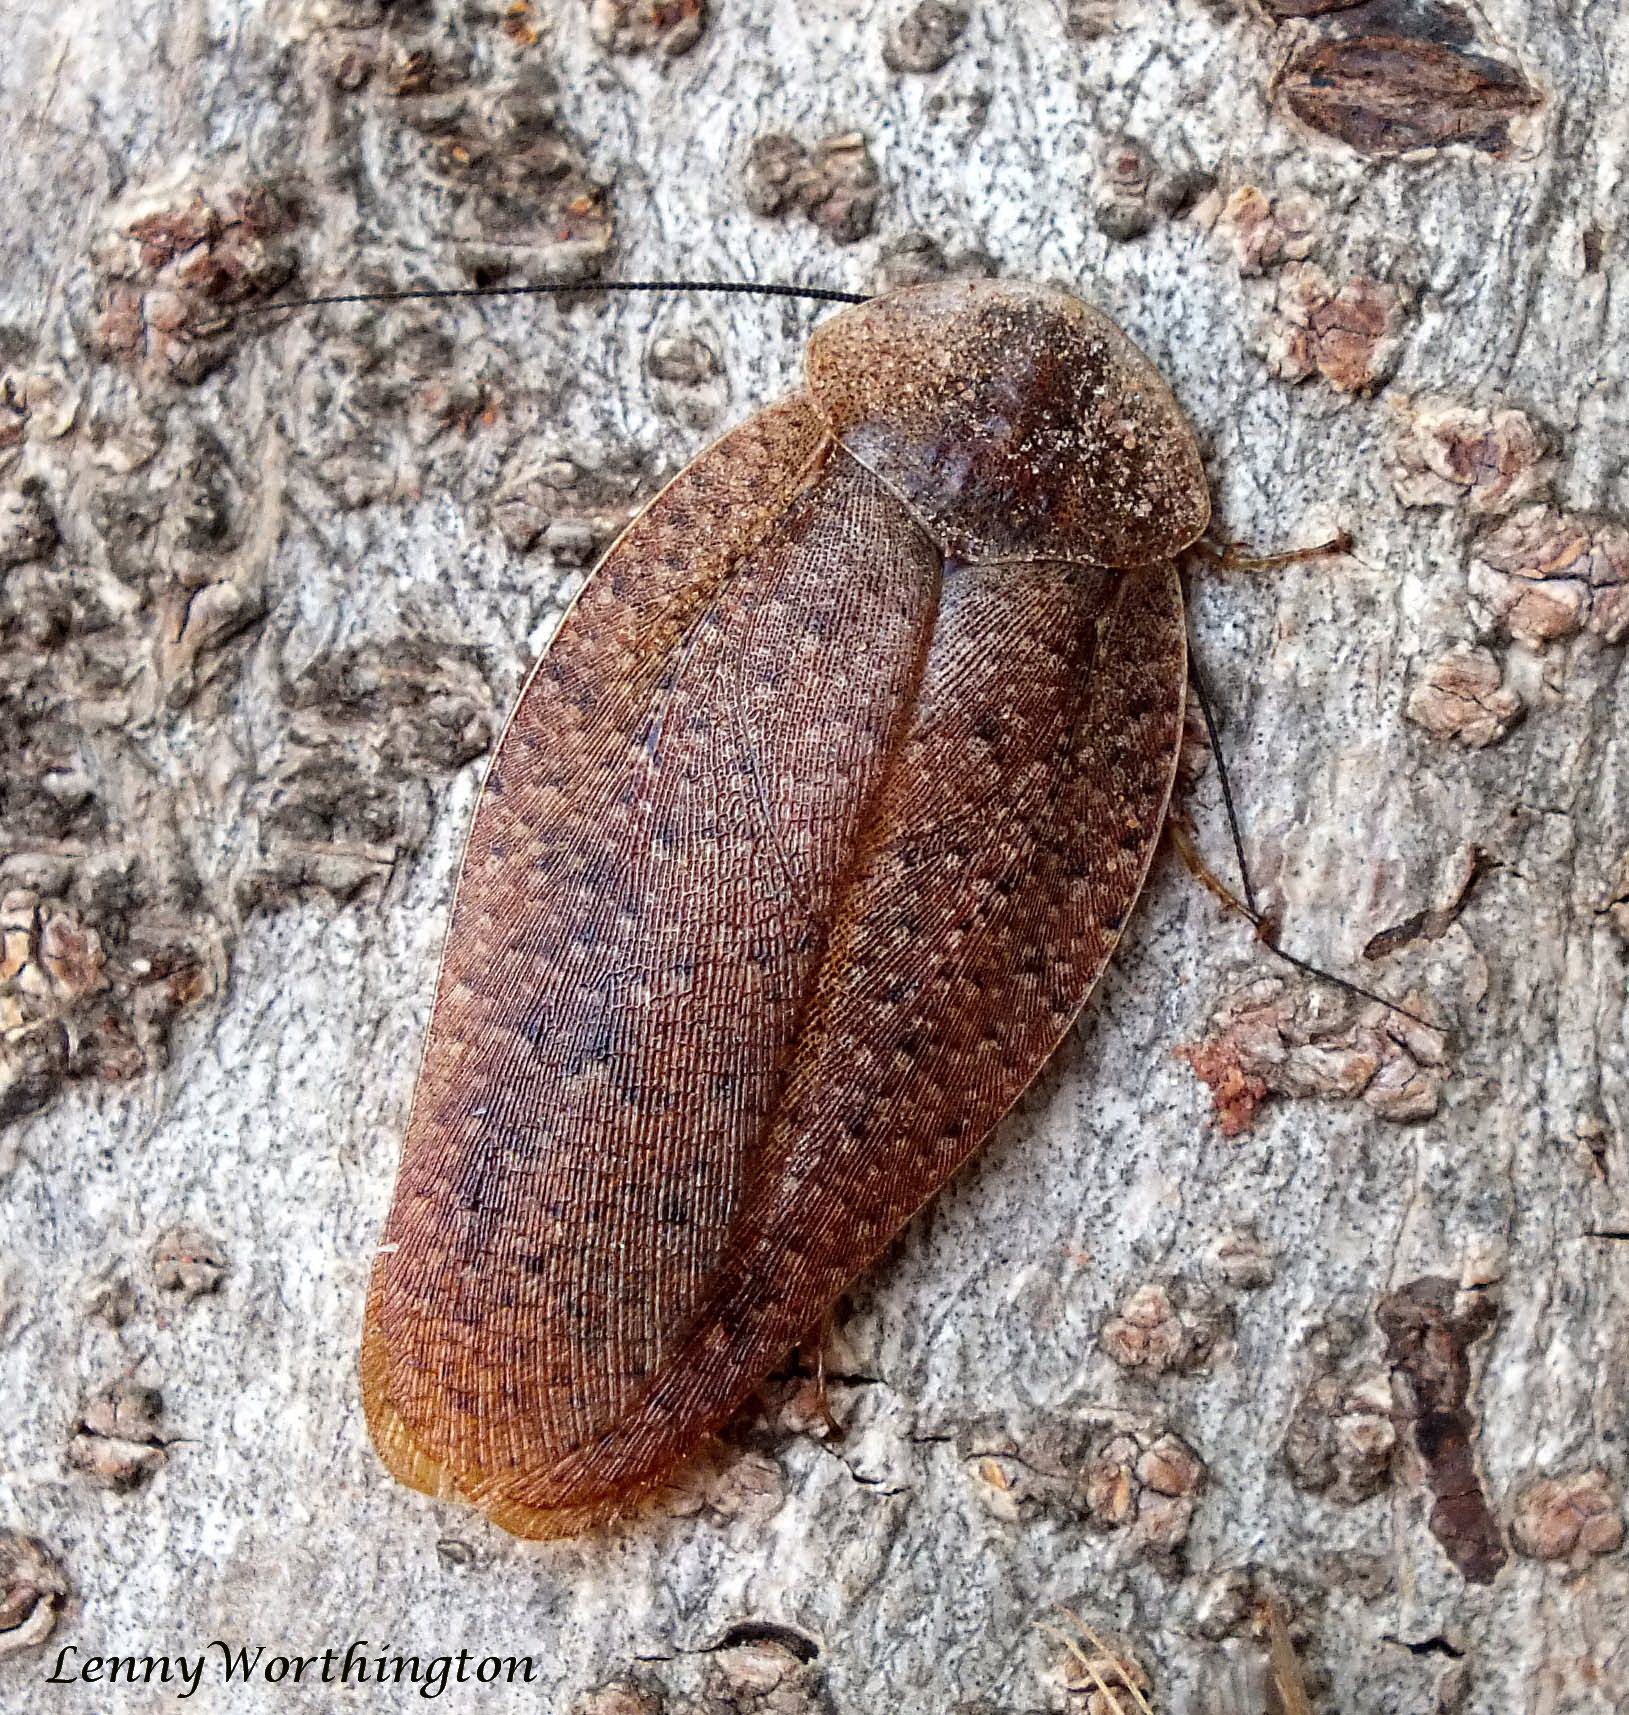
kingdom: Animalia
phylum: Arthropoda
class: Insecta
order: Blattodea
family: Blaberidae
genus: Rhicnoda
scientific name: Rhicnoda desidiosa
